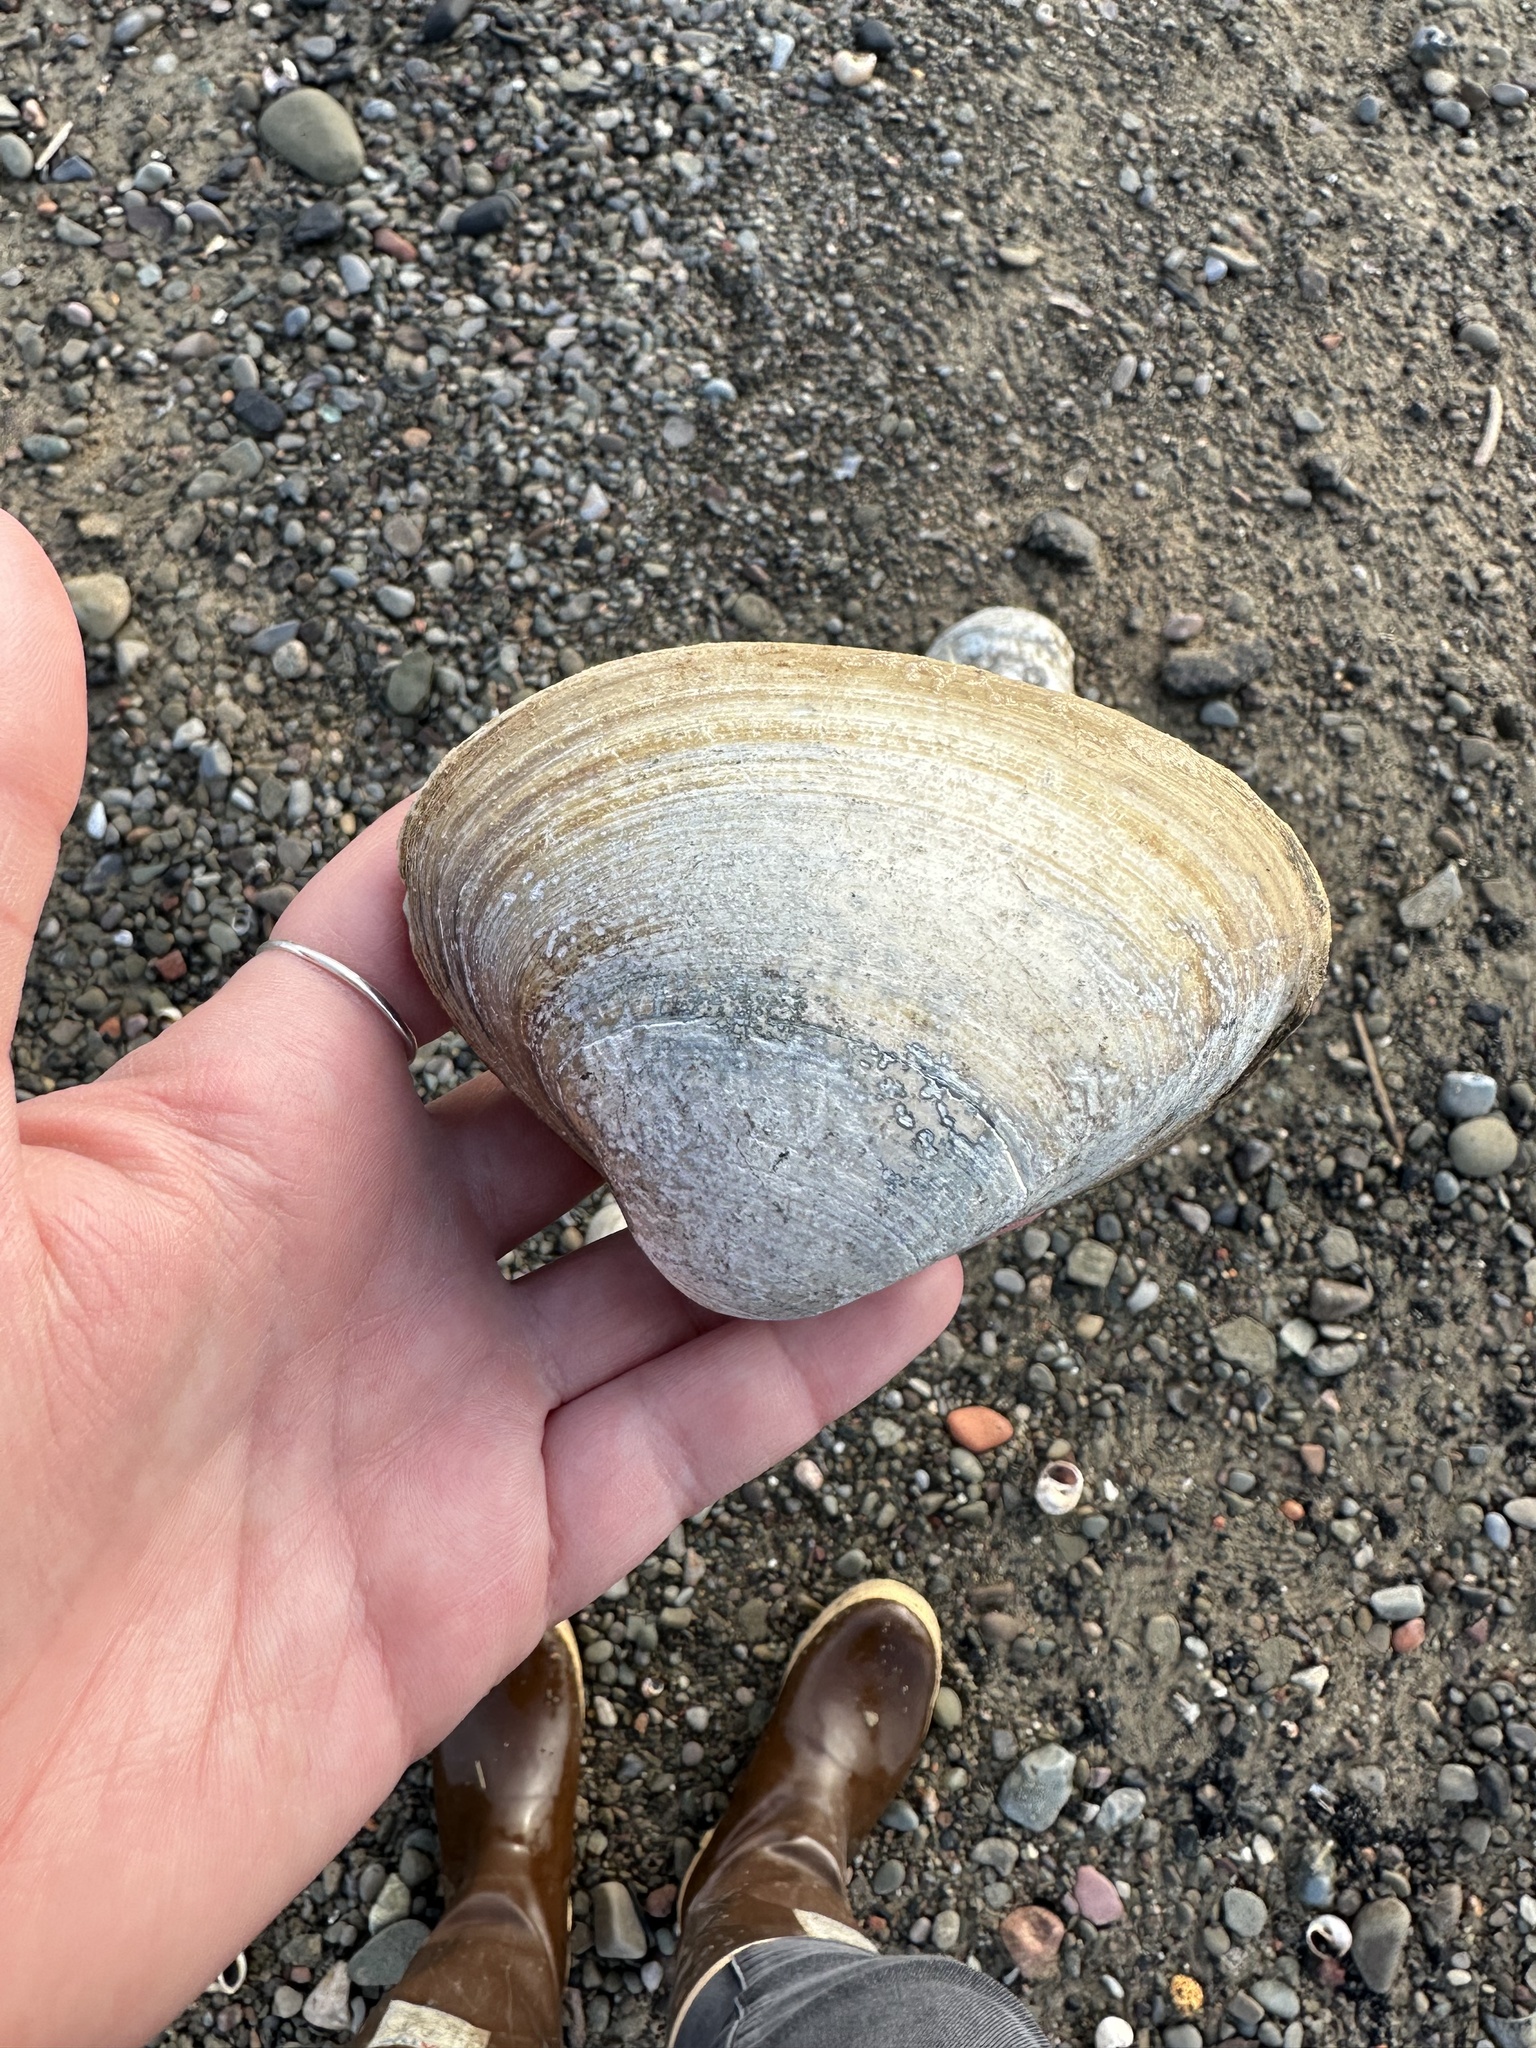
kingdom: Animalia
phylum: Mollusca
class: Bivalvia
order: Venerida
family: Mactridae
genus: Spisula
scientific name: Spisula solidissima
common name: Atlantic surf clam
